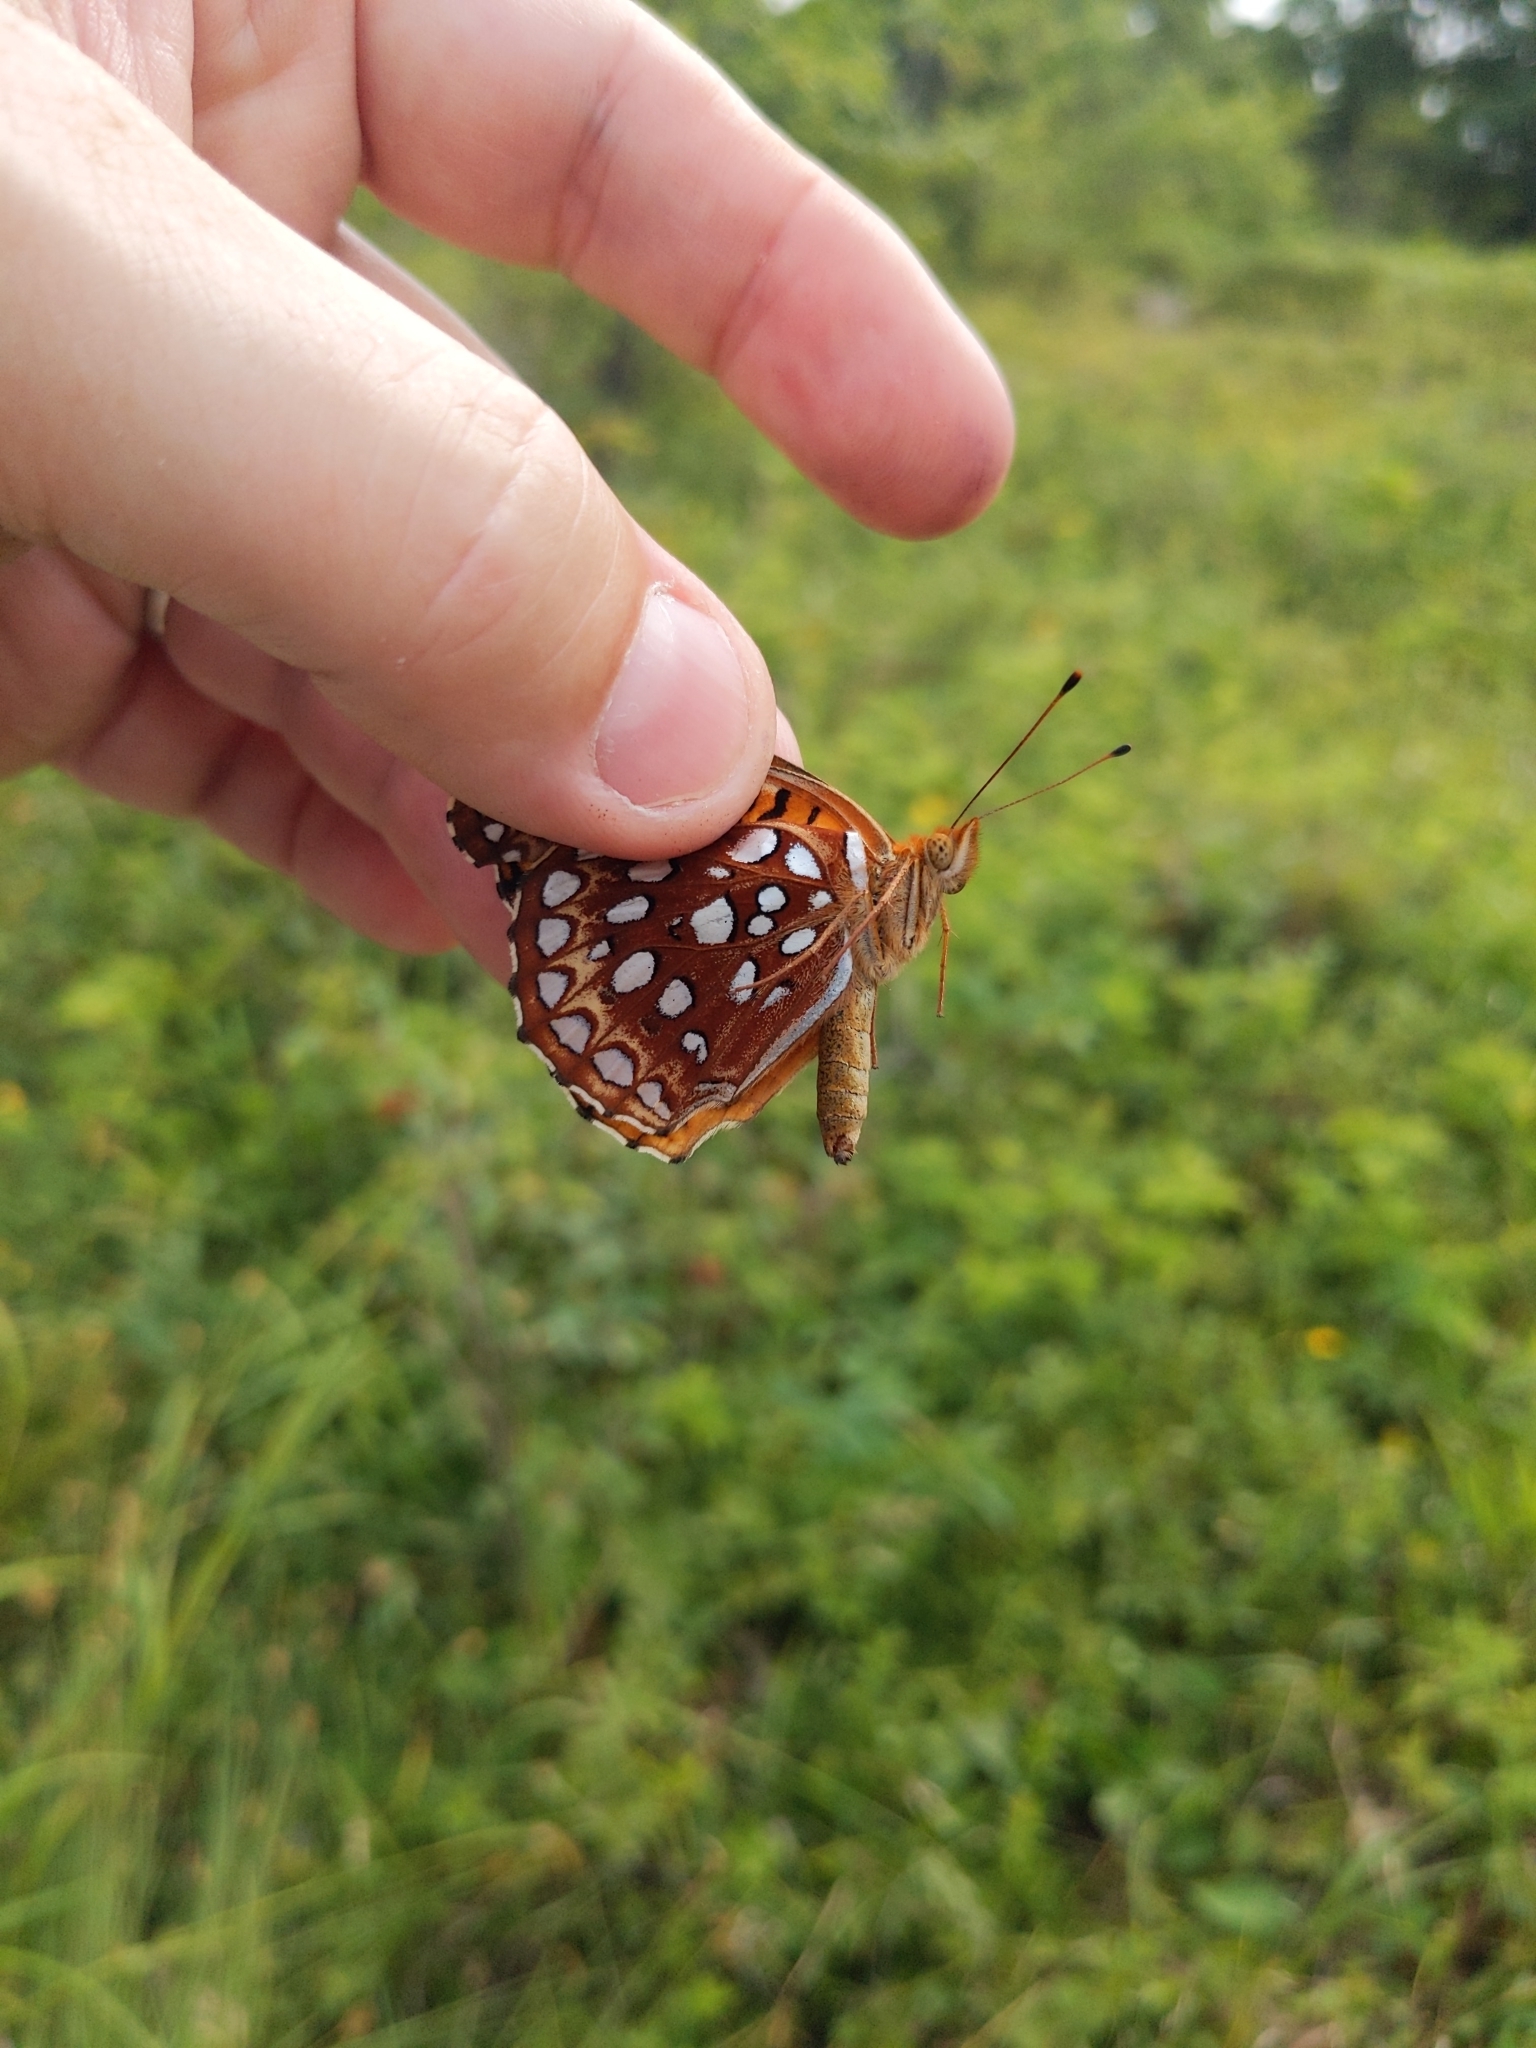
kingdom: Animalia
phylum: Arthropoda
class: Insecta
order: Lepidoptera
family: Nymphalidae
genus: Speyeria
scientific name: Speyeria aphrodite
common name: Aphrodite friitllary
